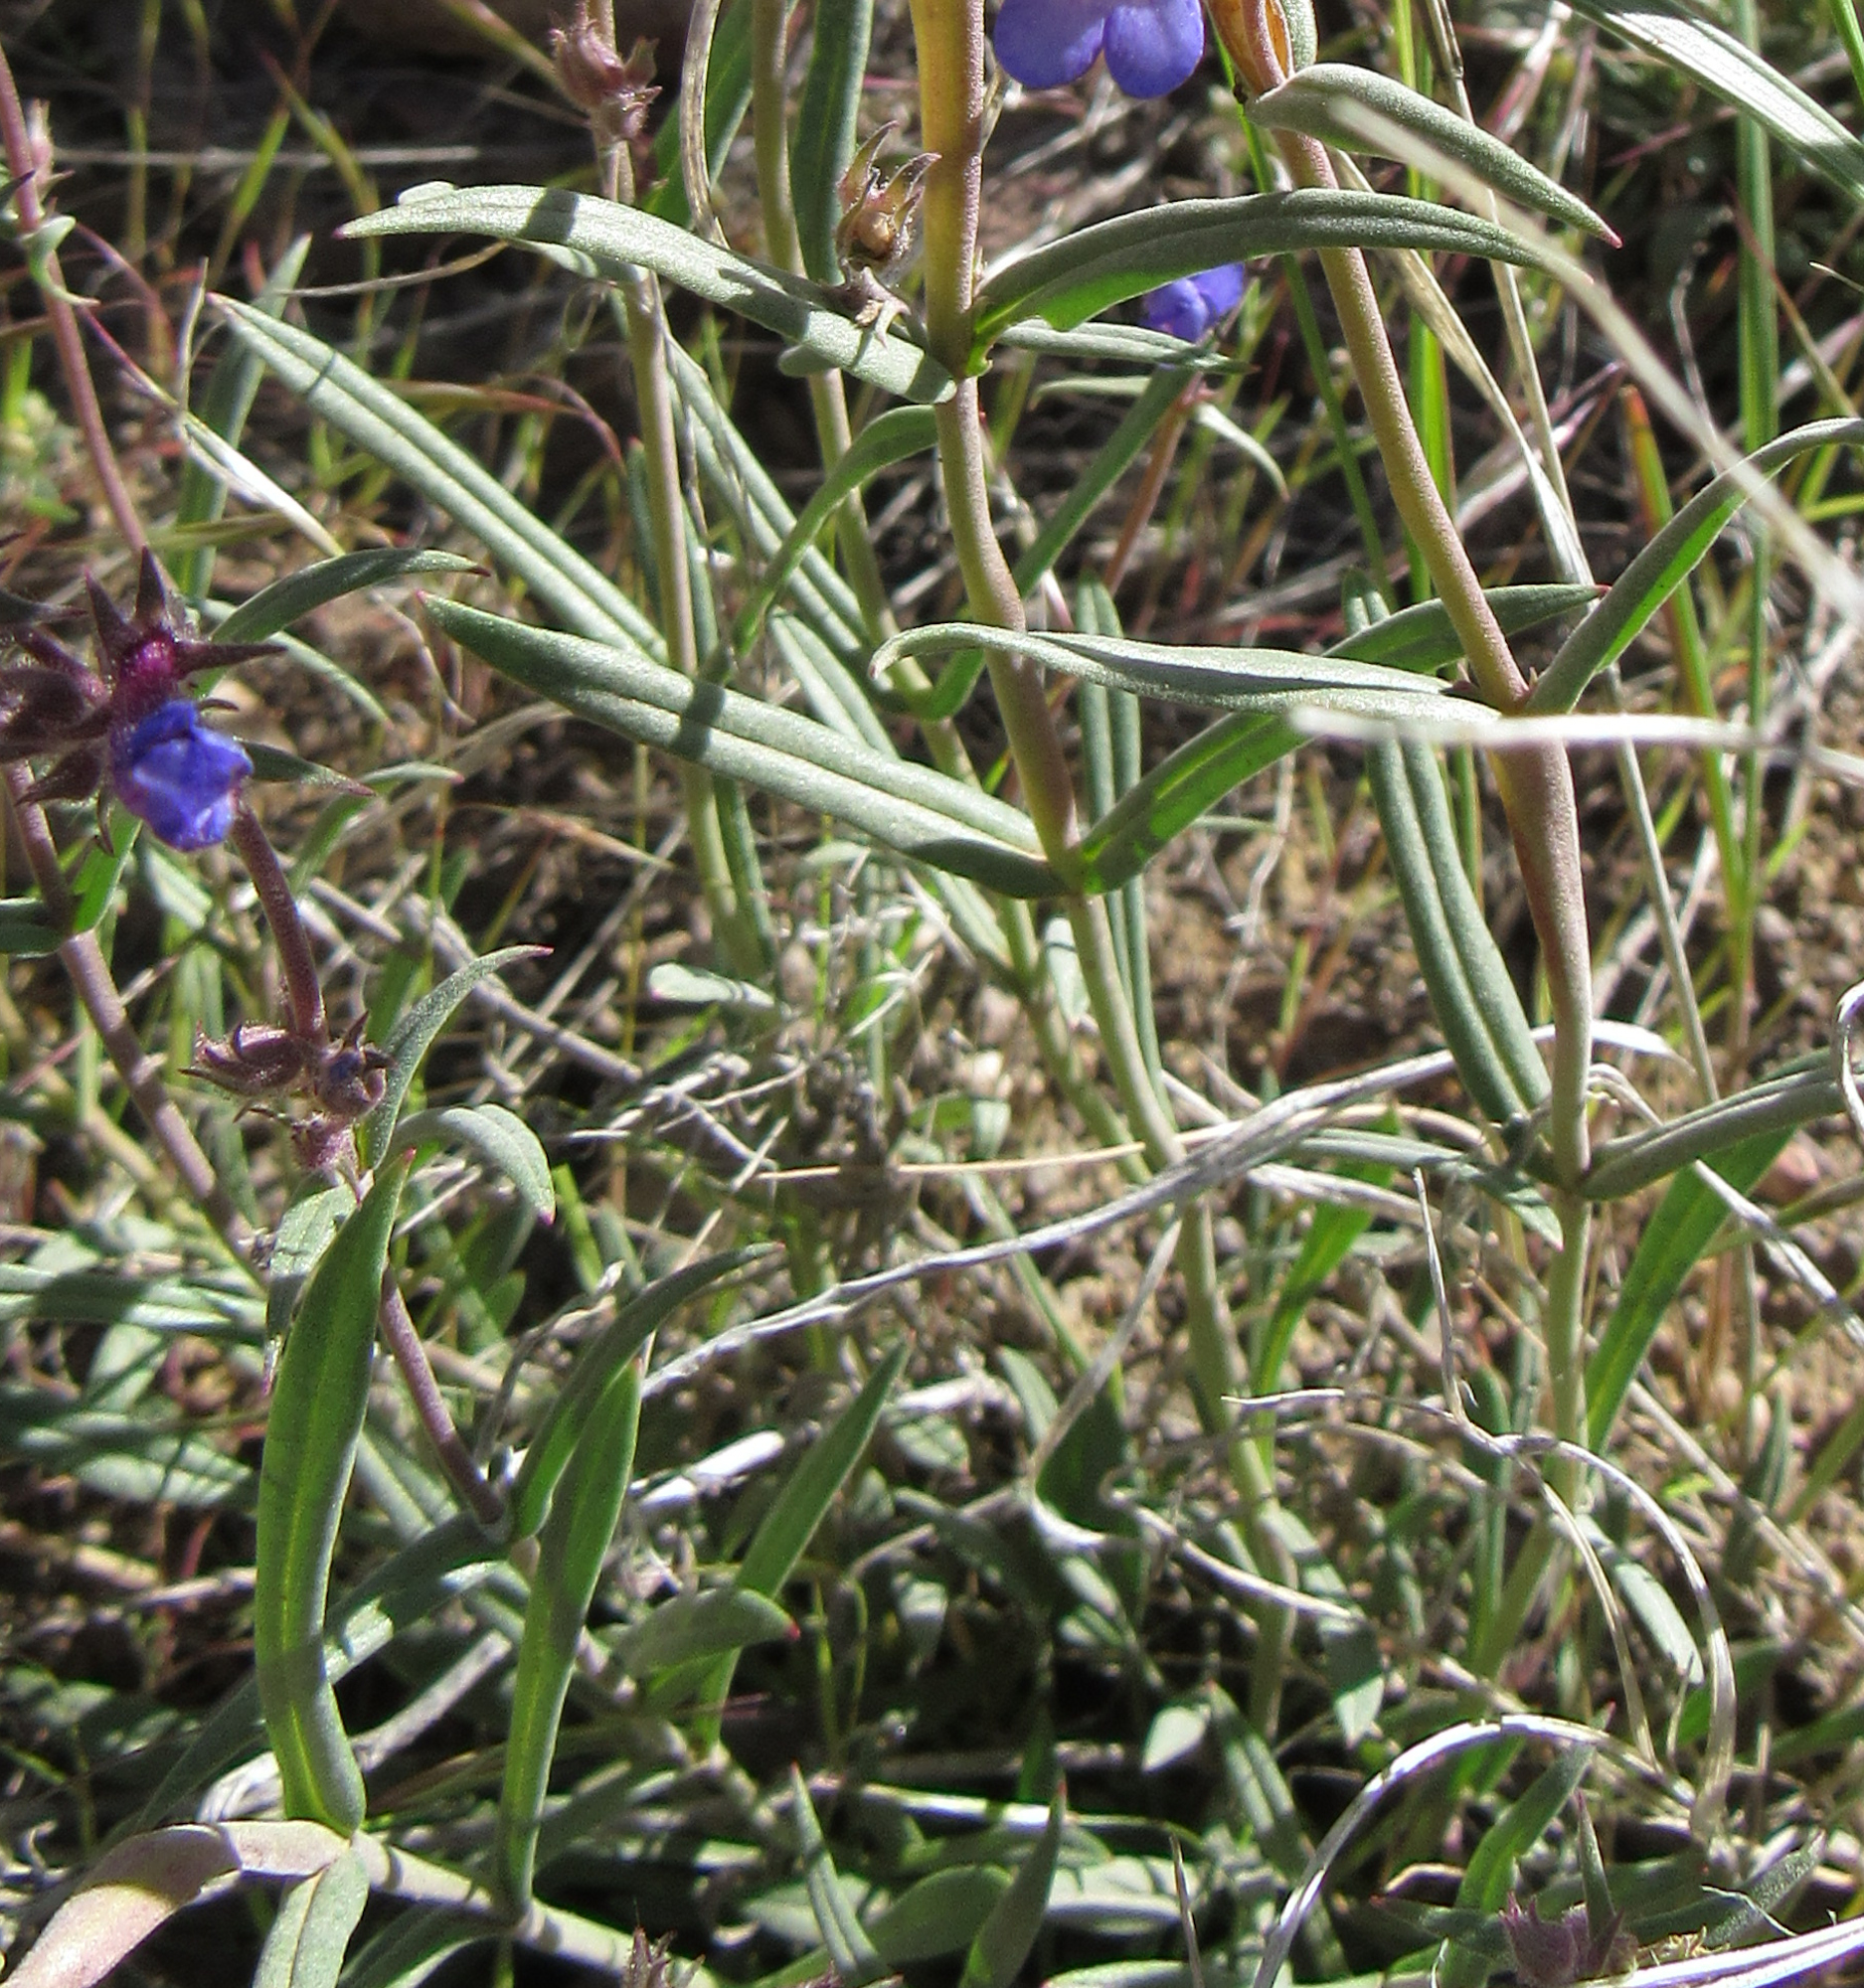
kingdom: Plantae
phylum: Tracheophyta
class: Magnoliopsida
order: Lamiales
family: Plantaginaceae
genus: Penstemon
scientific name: Penstemon humilis
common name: Low penstemon
